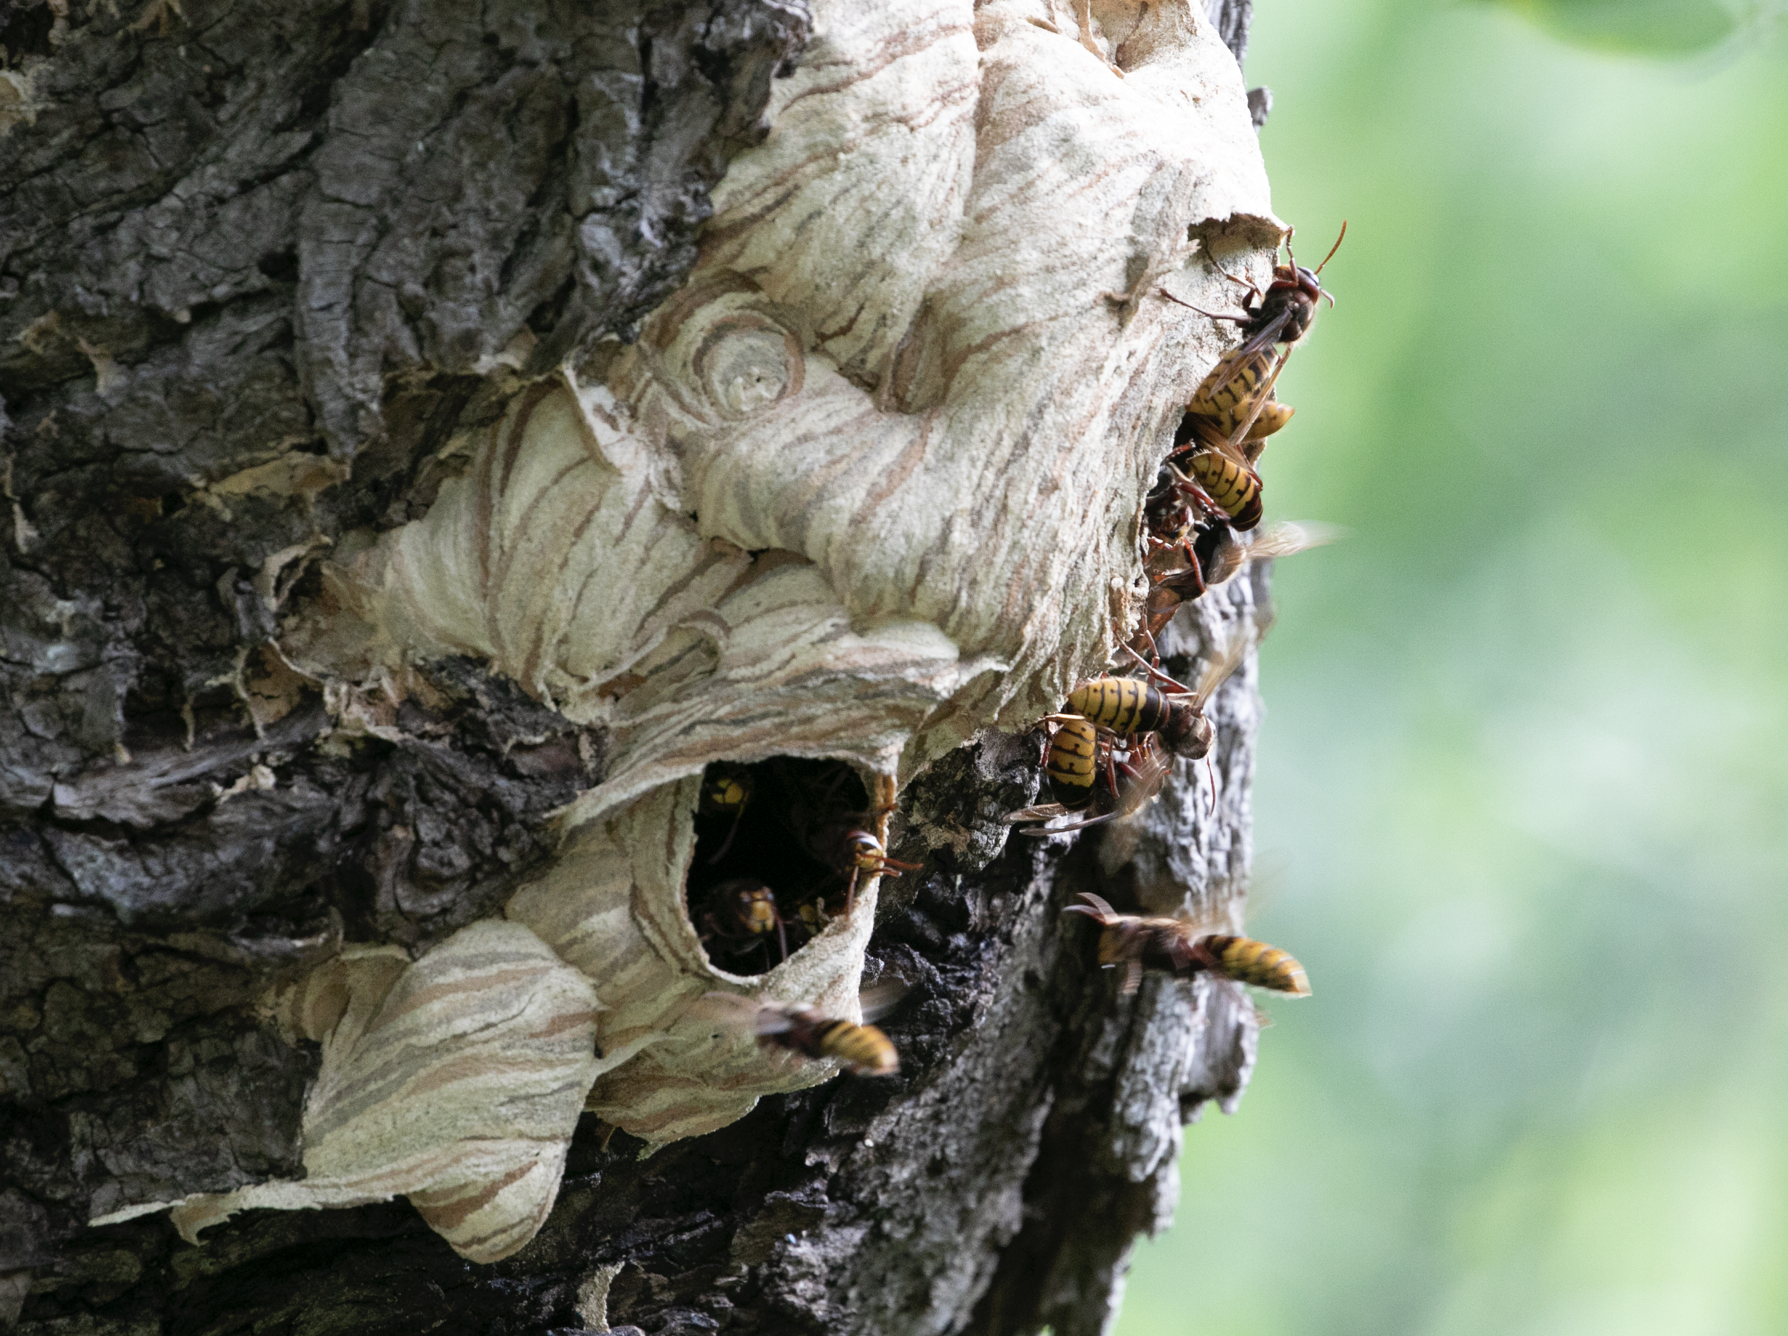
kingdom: Animalia
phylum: Arthropoda
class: Insecta
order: Hymenoptera
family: Vespidae
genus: Vespa
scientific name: Vespa crabro
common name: Hornet
